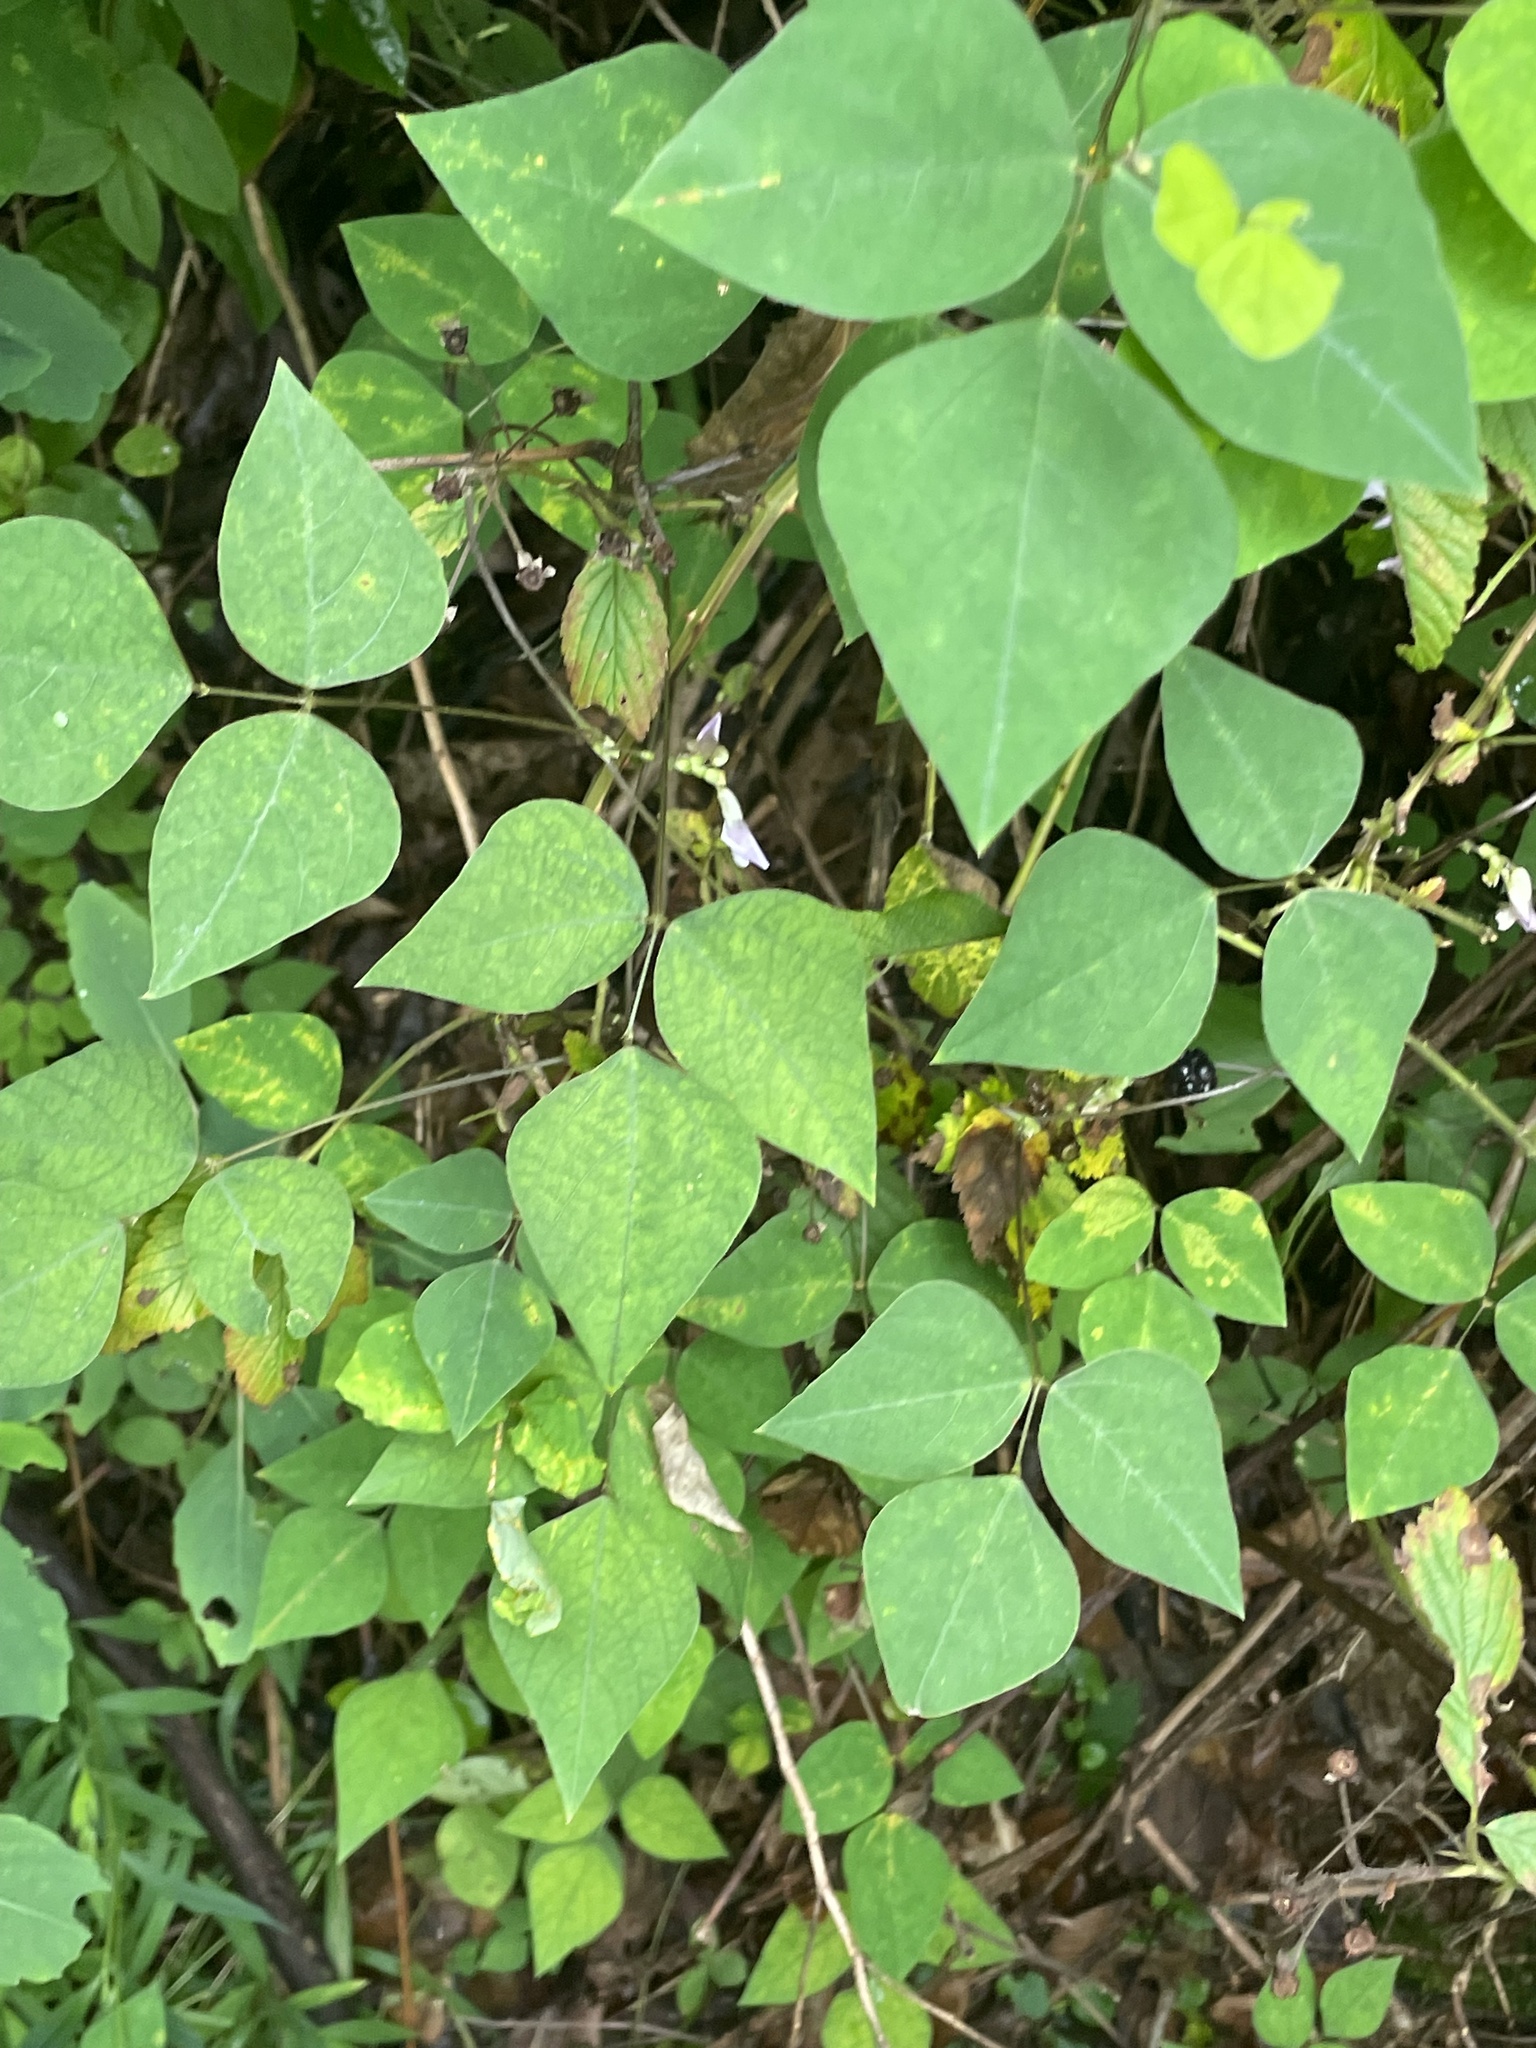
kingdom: Plantae
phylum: Tracheophyta
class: Magnoliopsida
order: Fabales
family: Fabaceae
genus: Amphicarpaea
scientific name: Amphicarpaea bracteata
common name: American hog peanut
